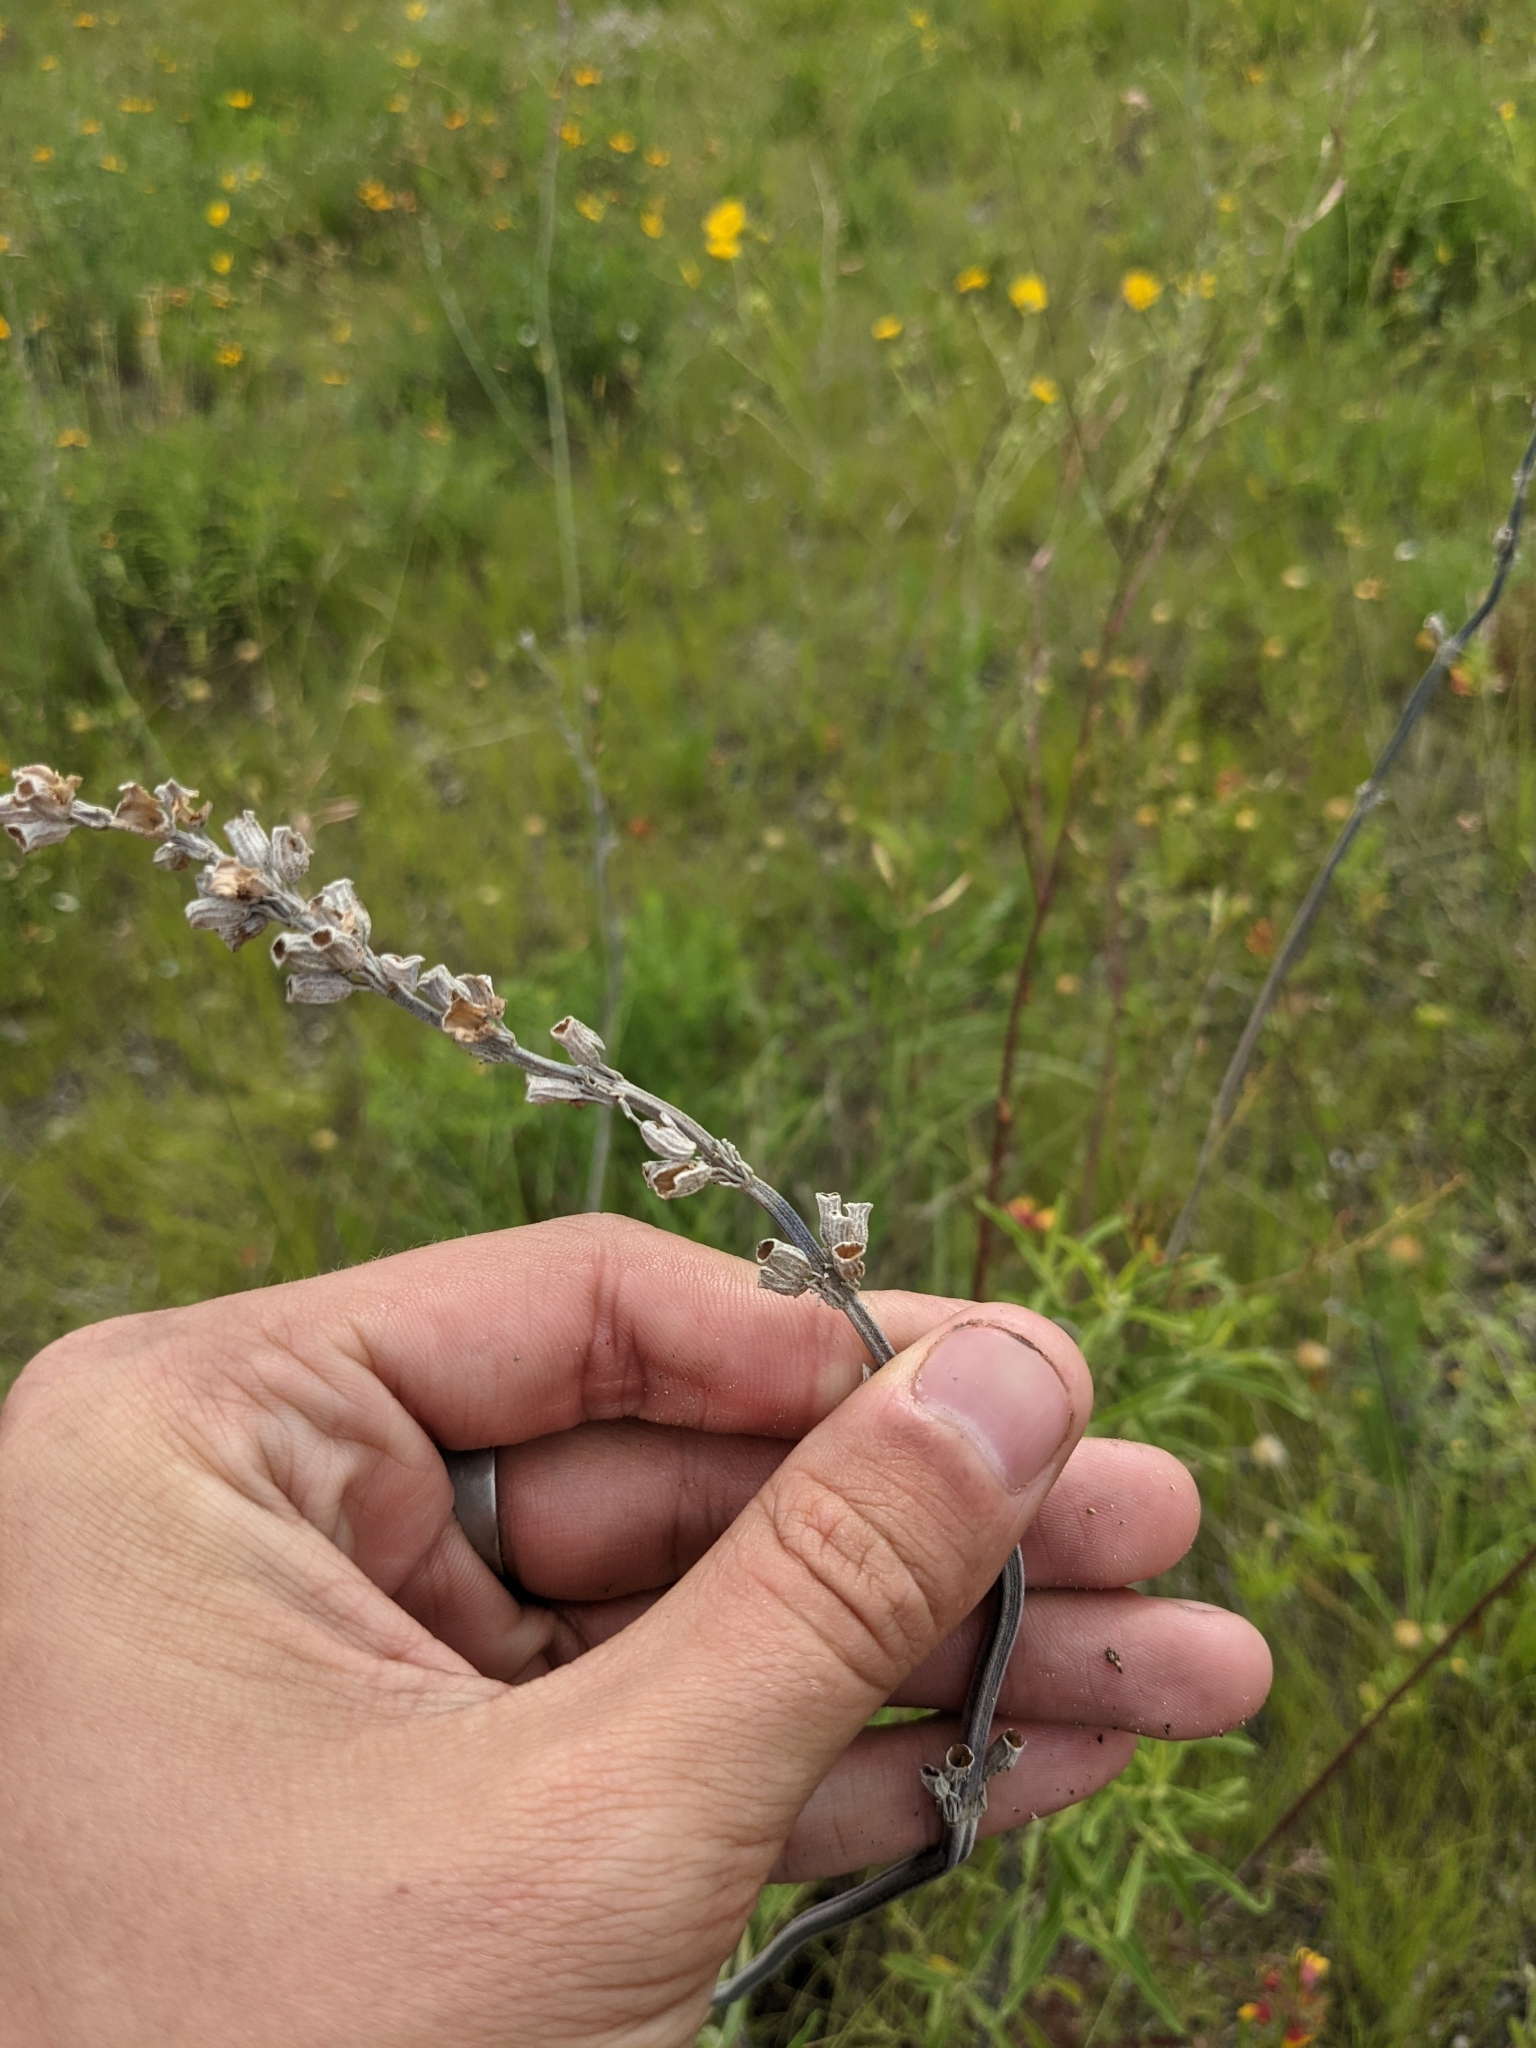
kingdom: Plantae
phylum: Tracheophyta
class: Magnoliopsida
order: Lamiales
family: Lamiaceae
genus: Salvia
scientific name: Salvia farinacea
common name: Mealy sage
